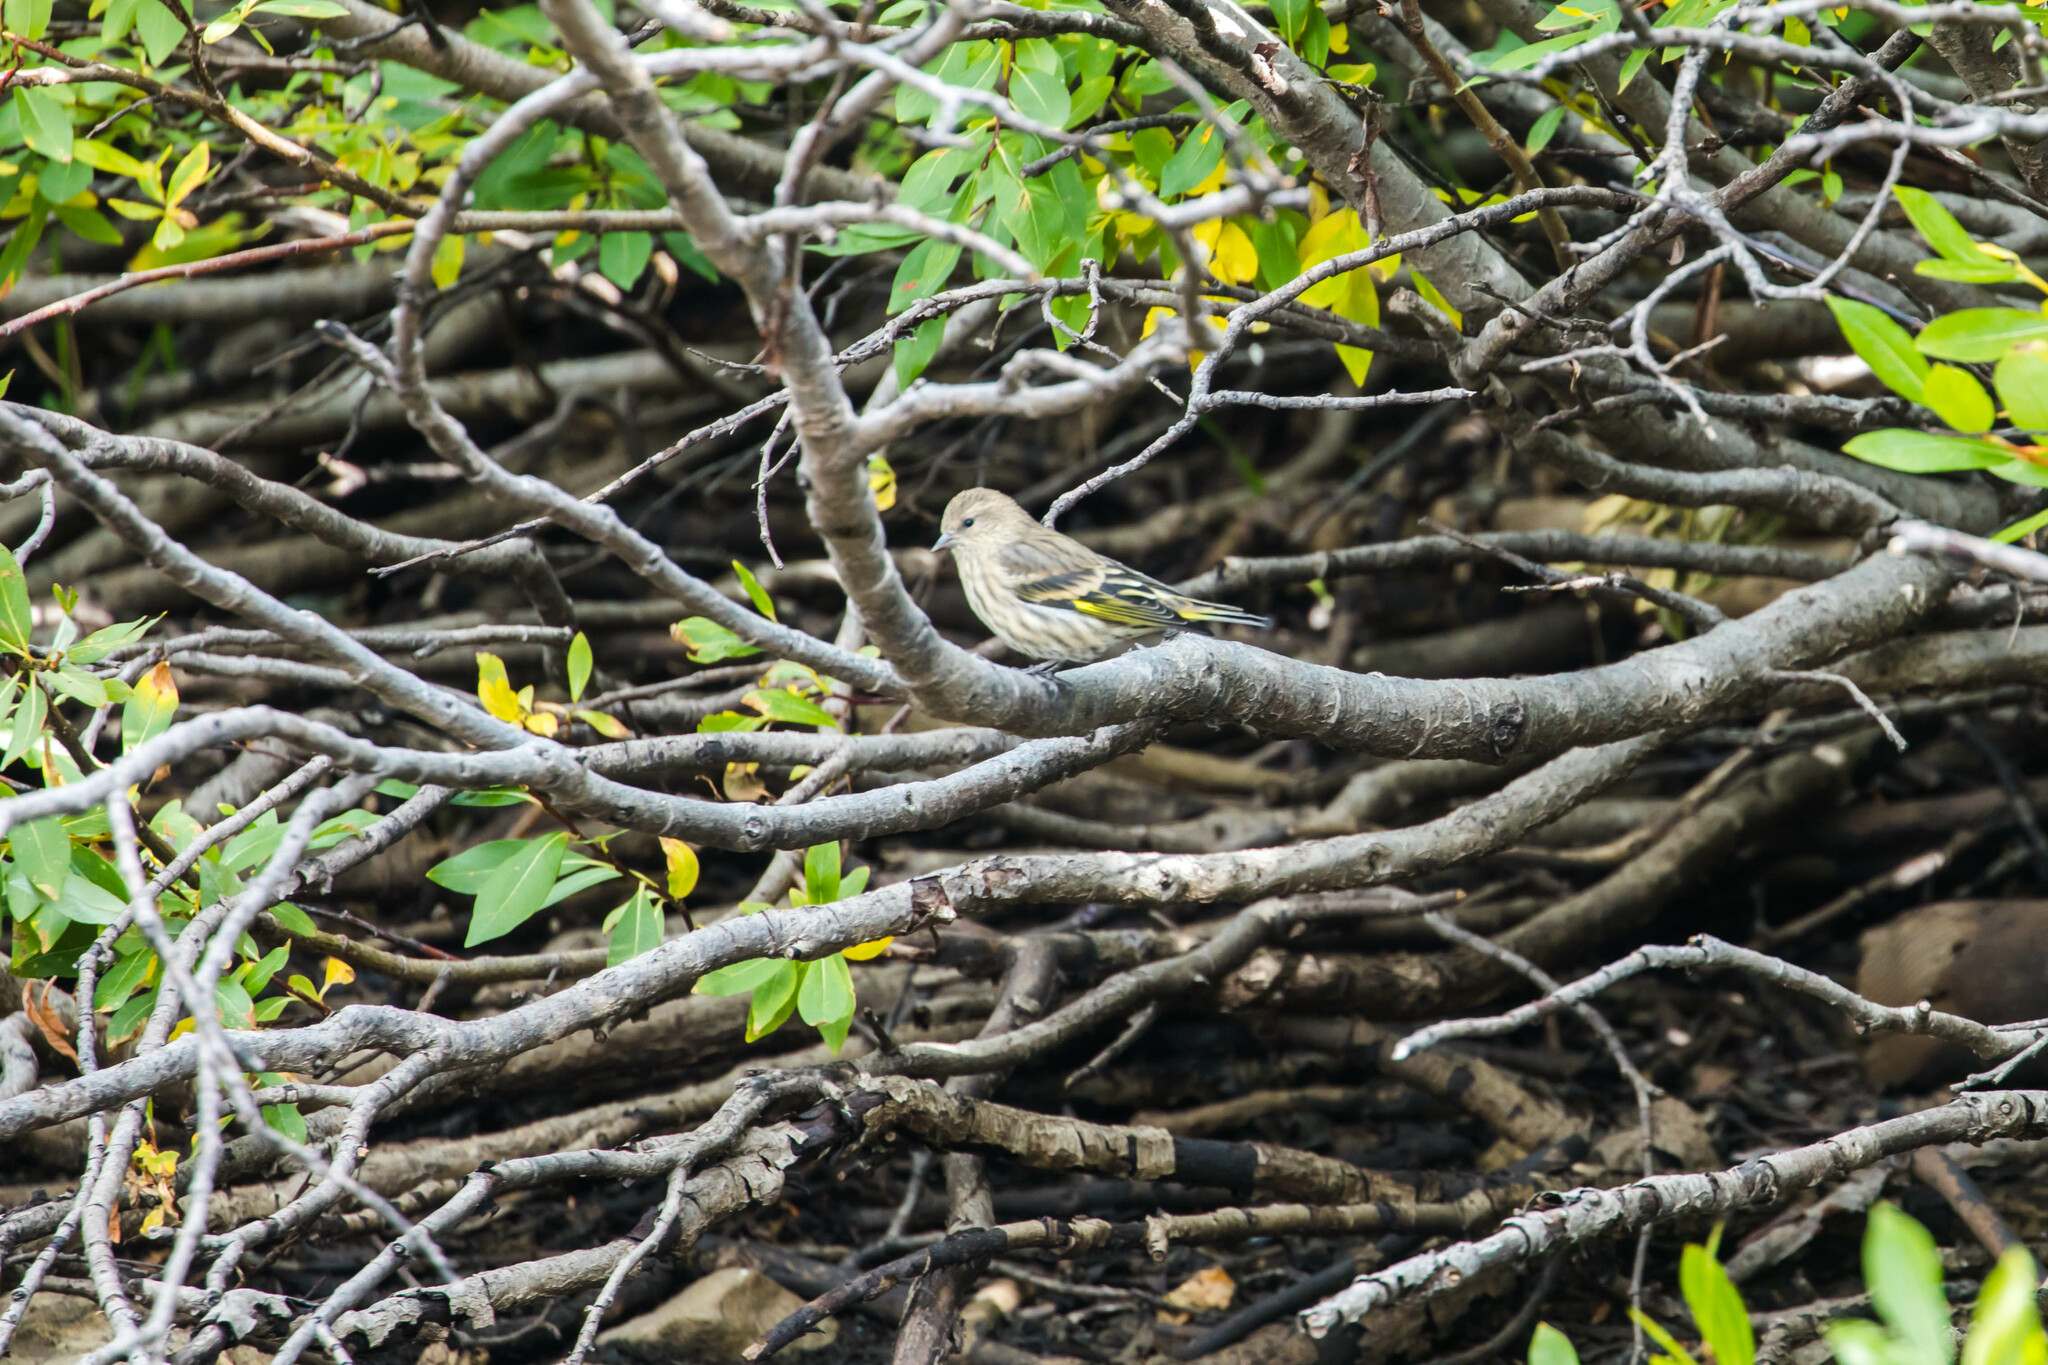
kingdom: Animalia
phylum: Chordata
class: Aves
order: Passeriformes
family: Fringillidae
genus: Spinus
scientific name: Spinus pinus
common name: Pine siskin
